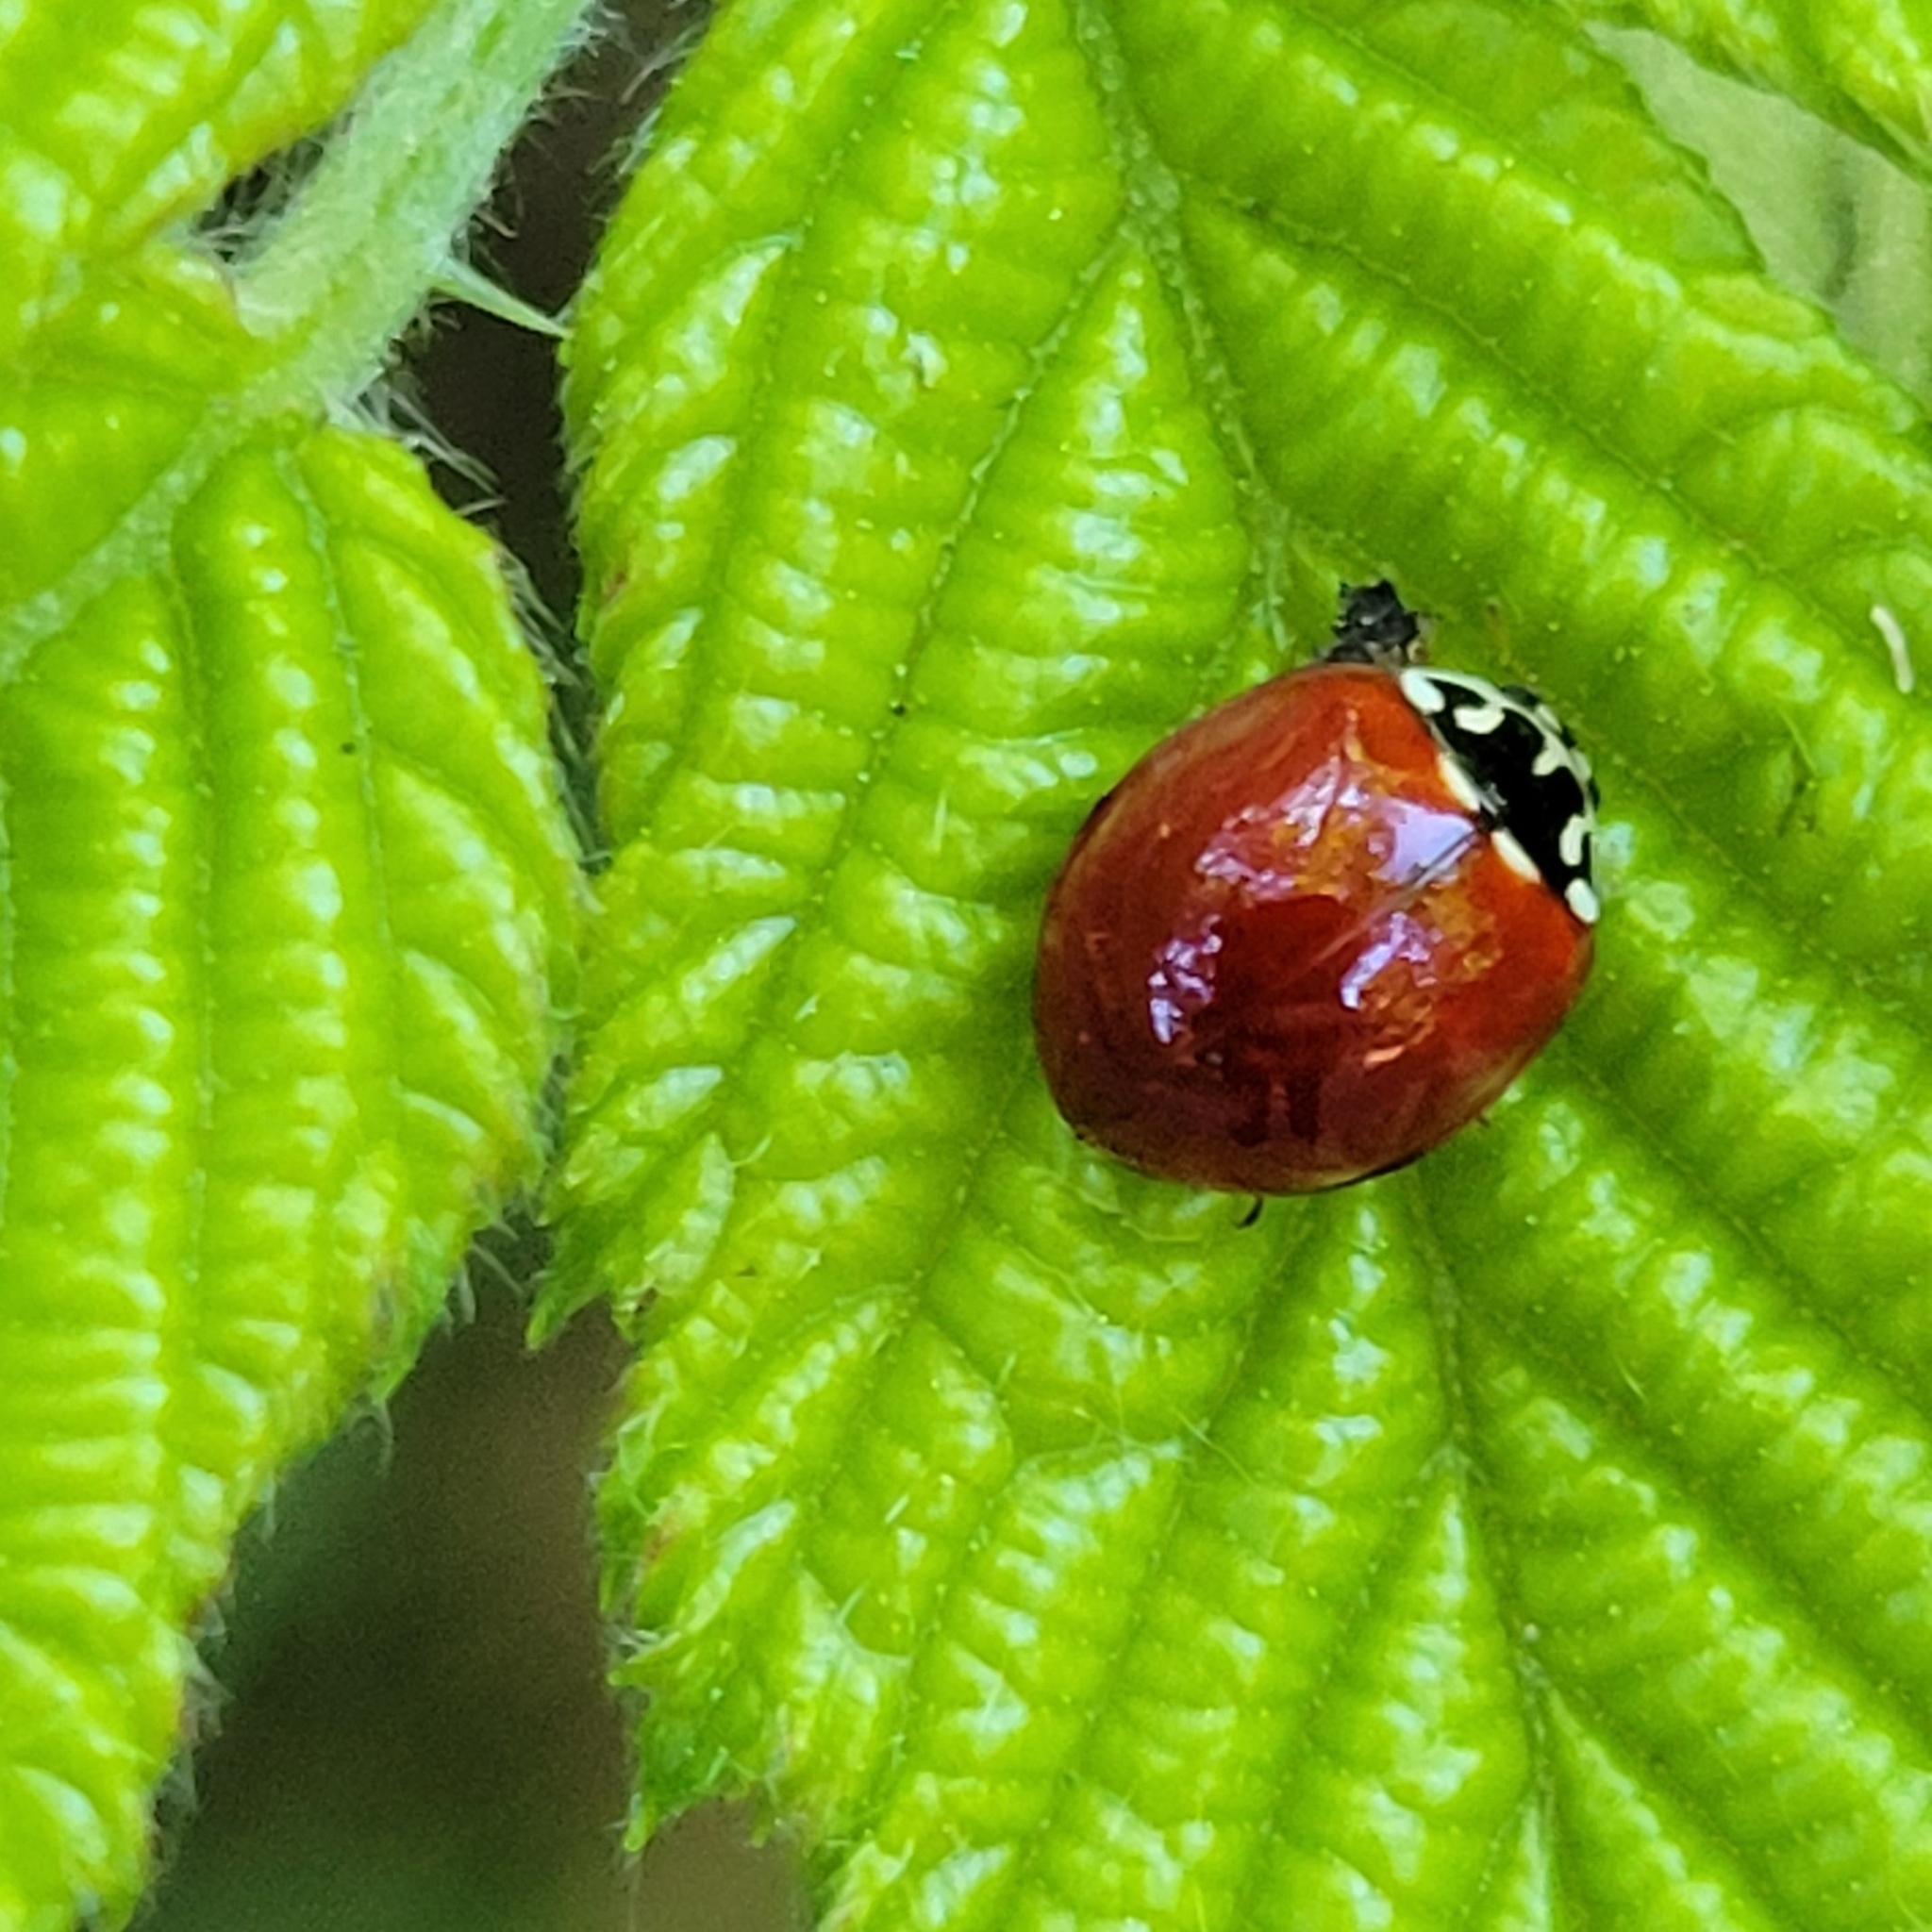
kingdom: Animalia
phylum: Arthropoda
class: Insecta
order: Coleoptera
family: Coccinellidae
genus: Cycloneda
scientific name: Cycloneda polita
